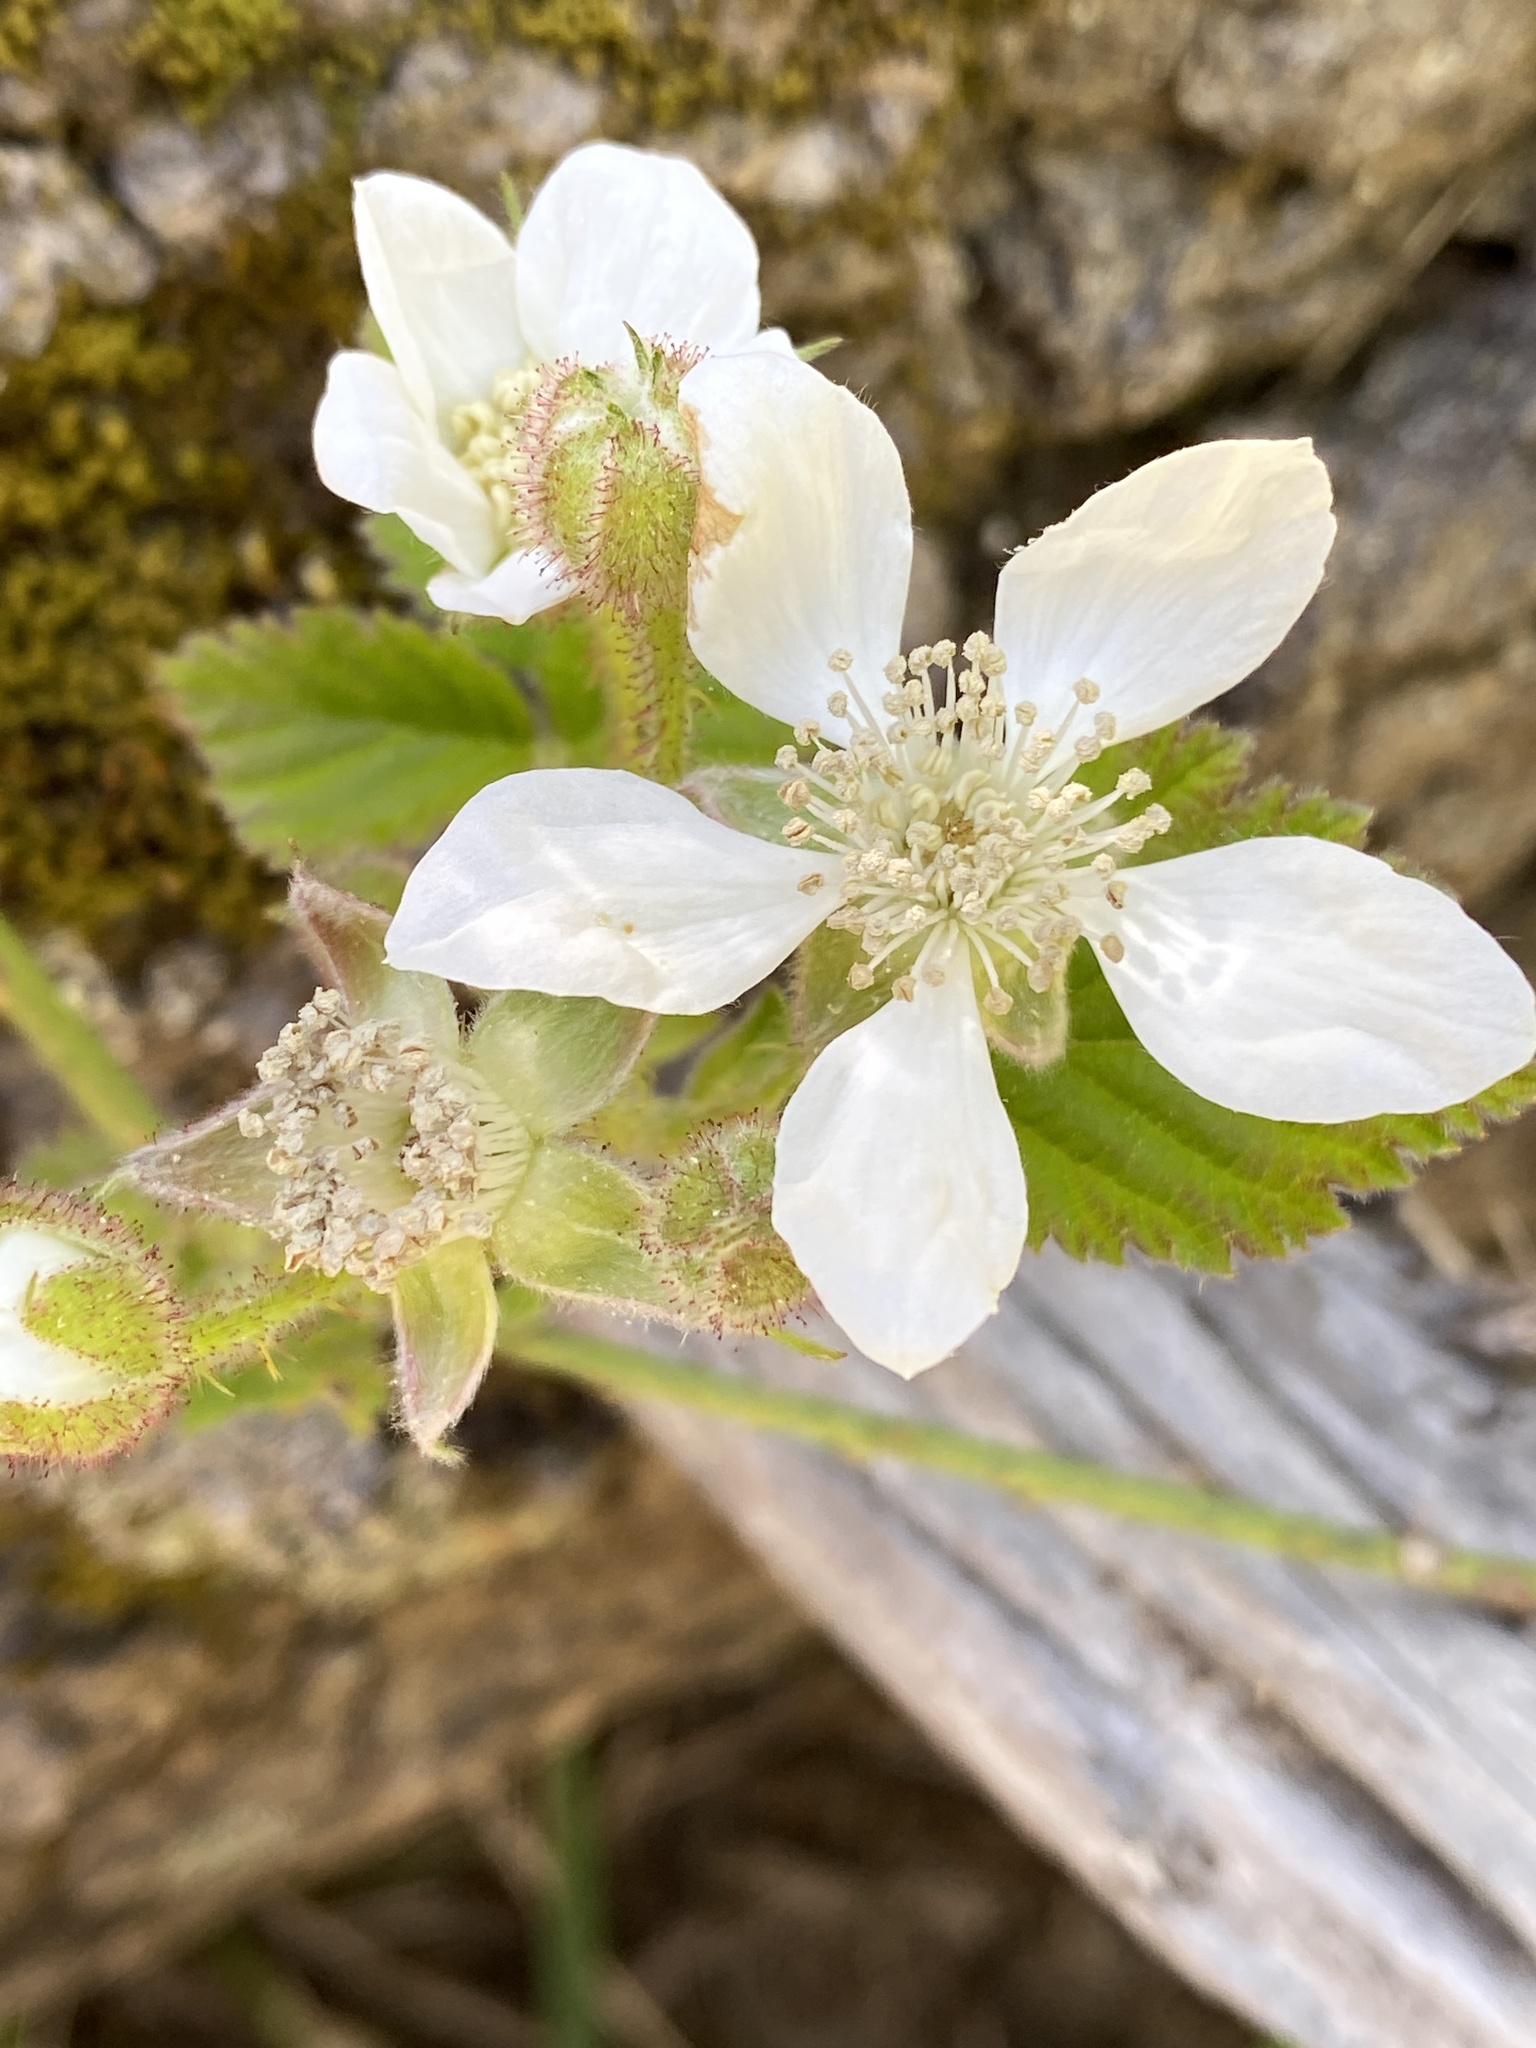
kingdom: Plantae
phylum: Tracheophyta
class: Magnoliopsida
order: Rosales
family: Rosaceae
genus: Rubus
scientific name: Rubus ursinus
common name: Pacific blackberry
